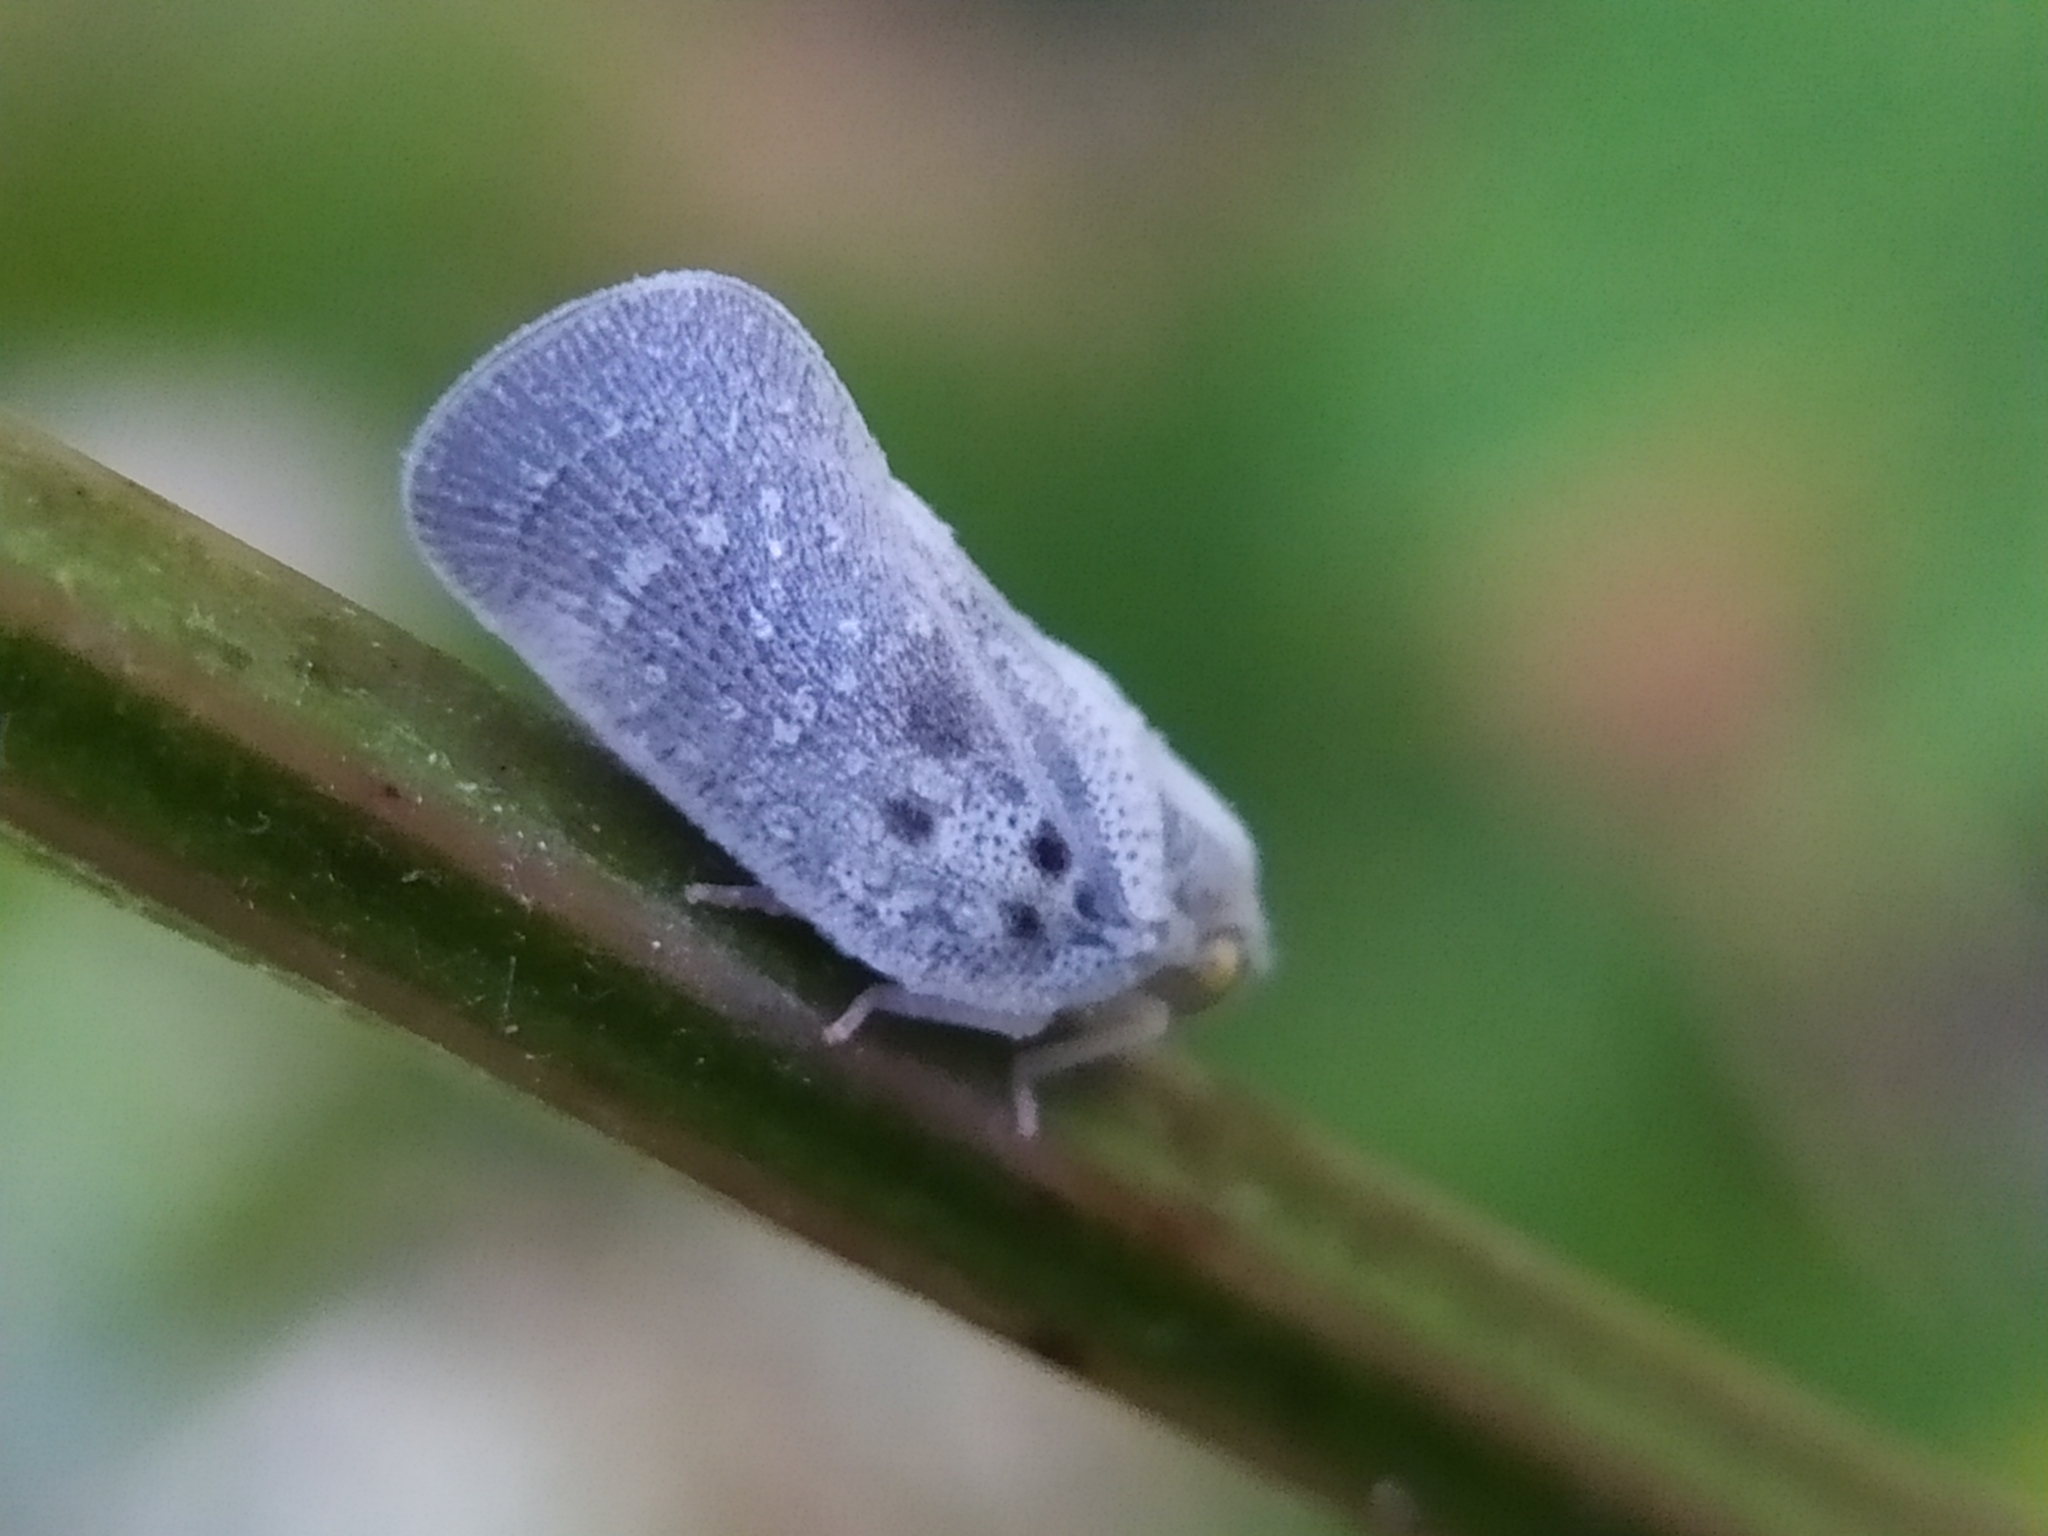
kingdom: Animalia
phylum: Arthropoda
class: Insecta
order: Hemiptera
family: Flatidae
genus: Metcalfa
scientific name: Metcalfa pruinosa
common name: Citrus flatid planthopper
